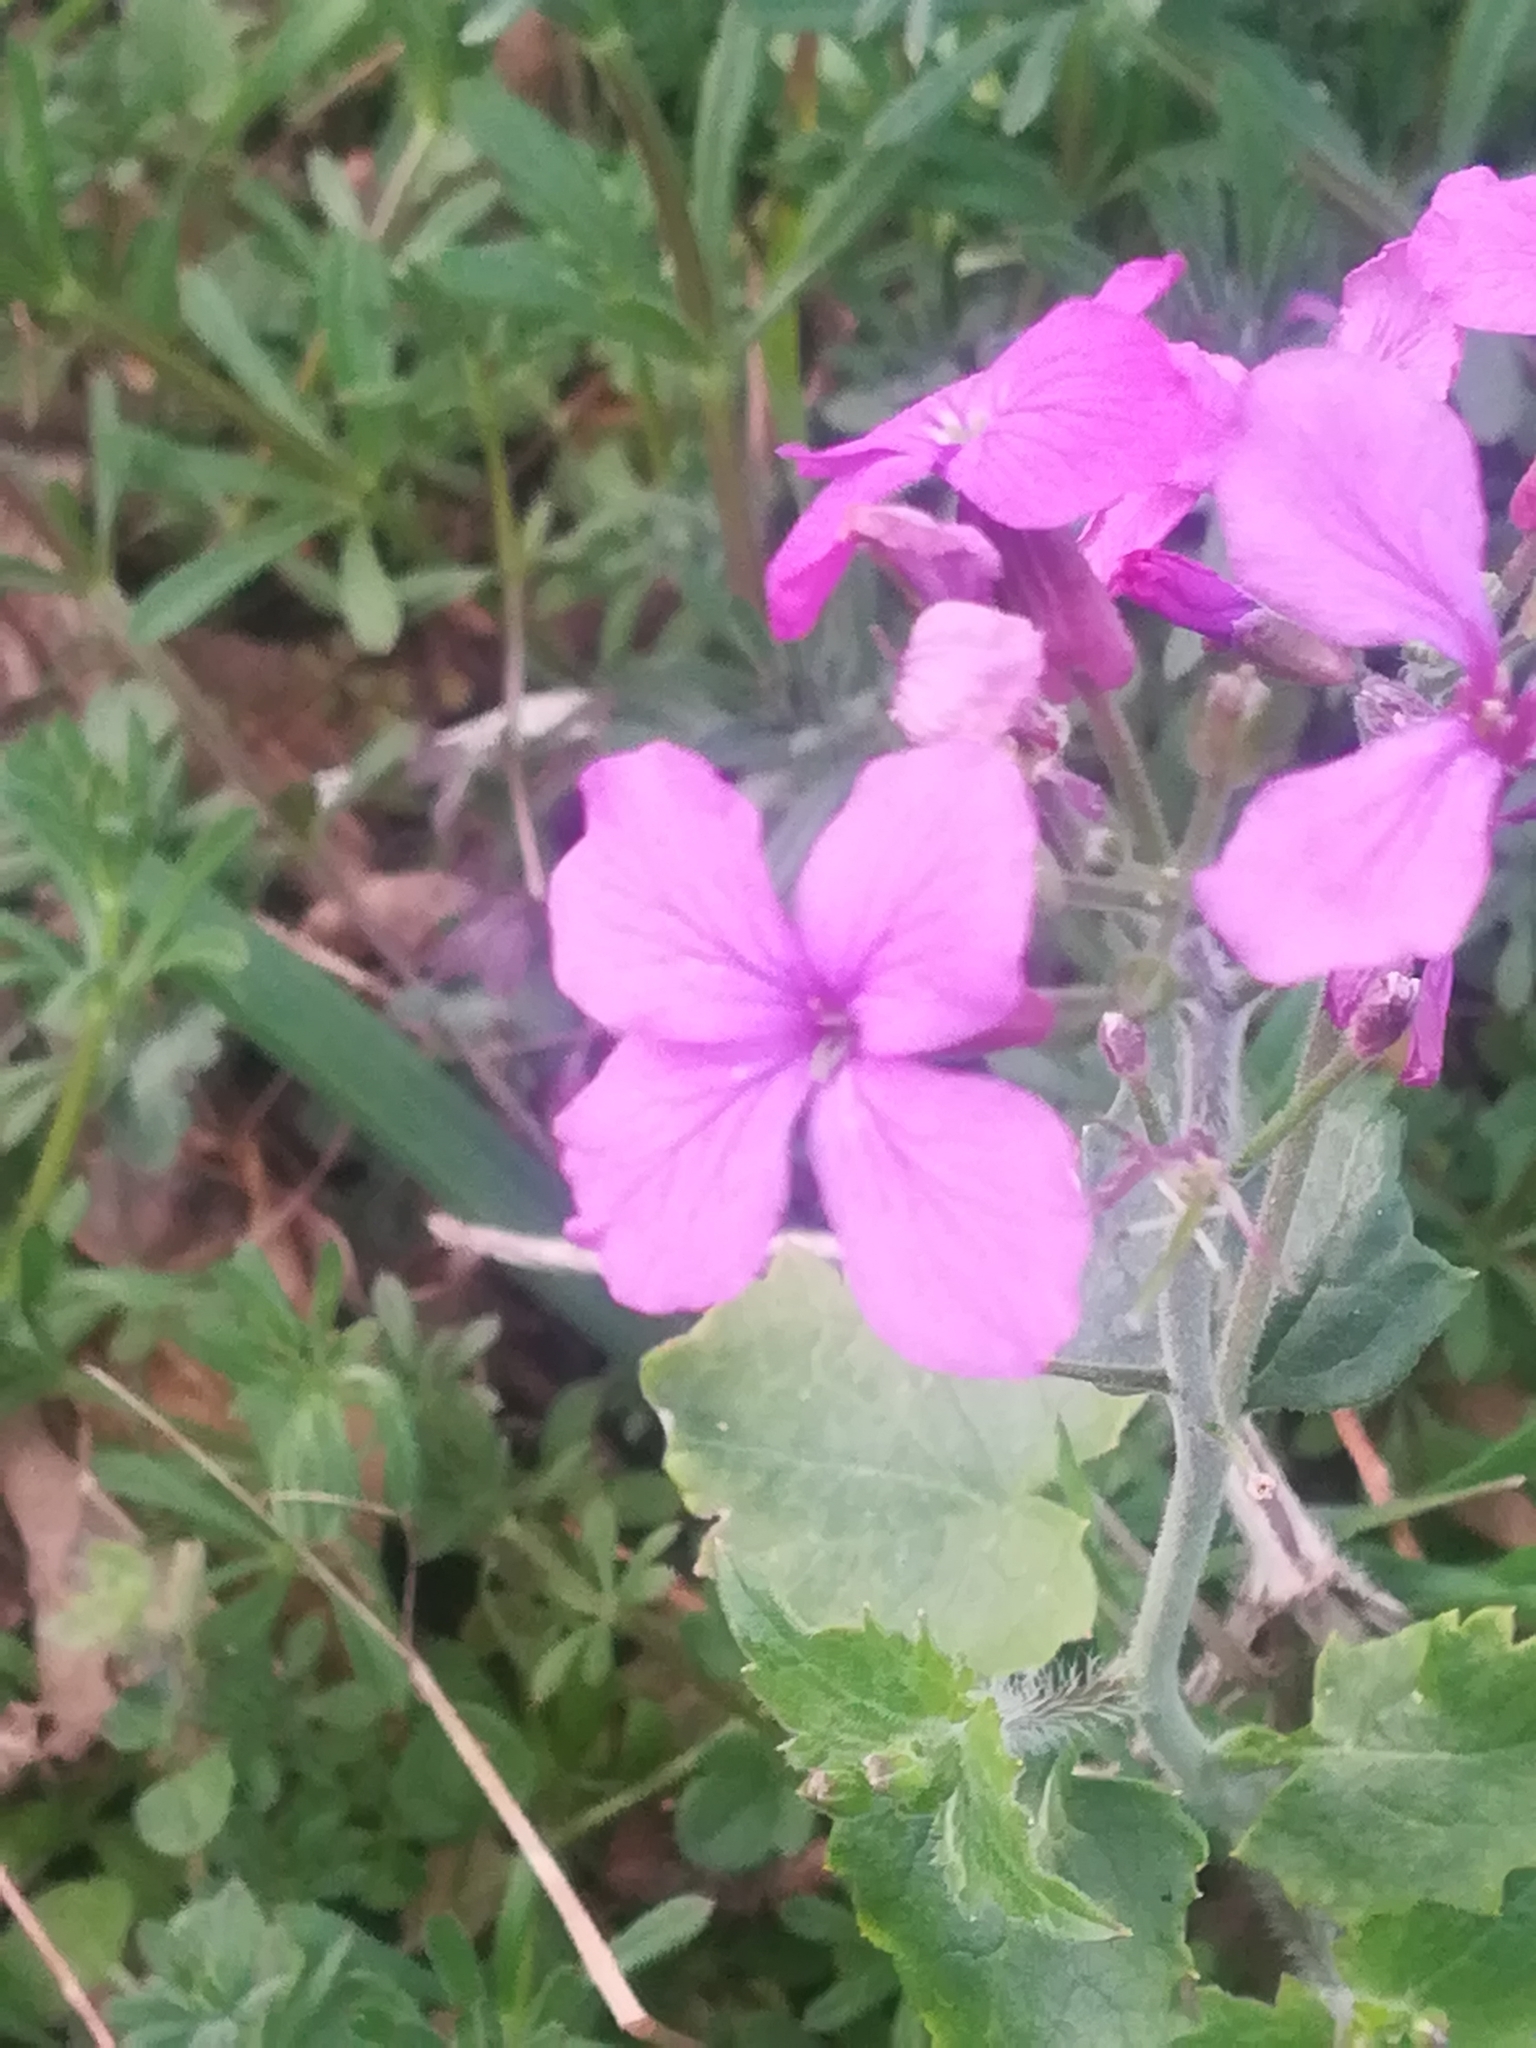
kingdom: Plantae
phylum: Tracheophyta
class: Magnoliopsida
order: Brassicales
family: Brassicaceae
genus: Lunaria
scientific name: Lunaria annua
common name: Honesty
